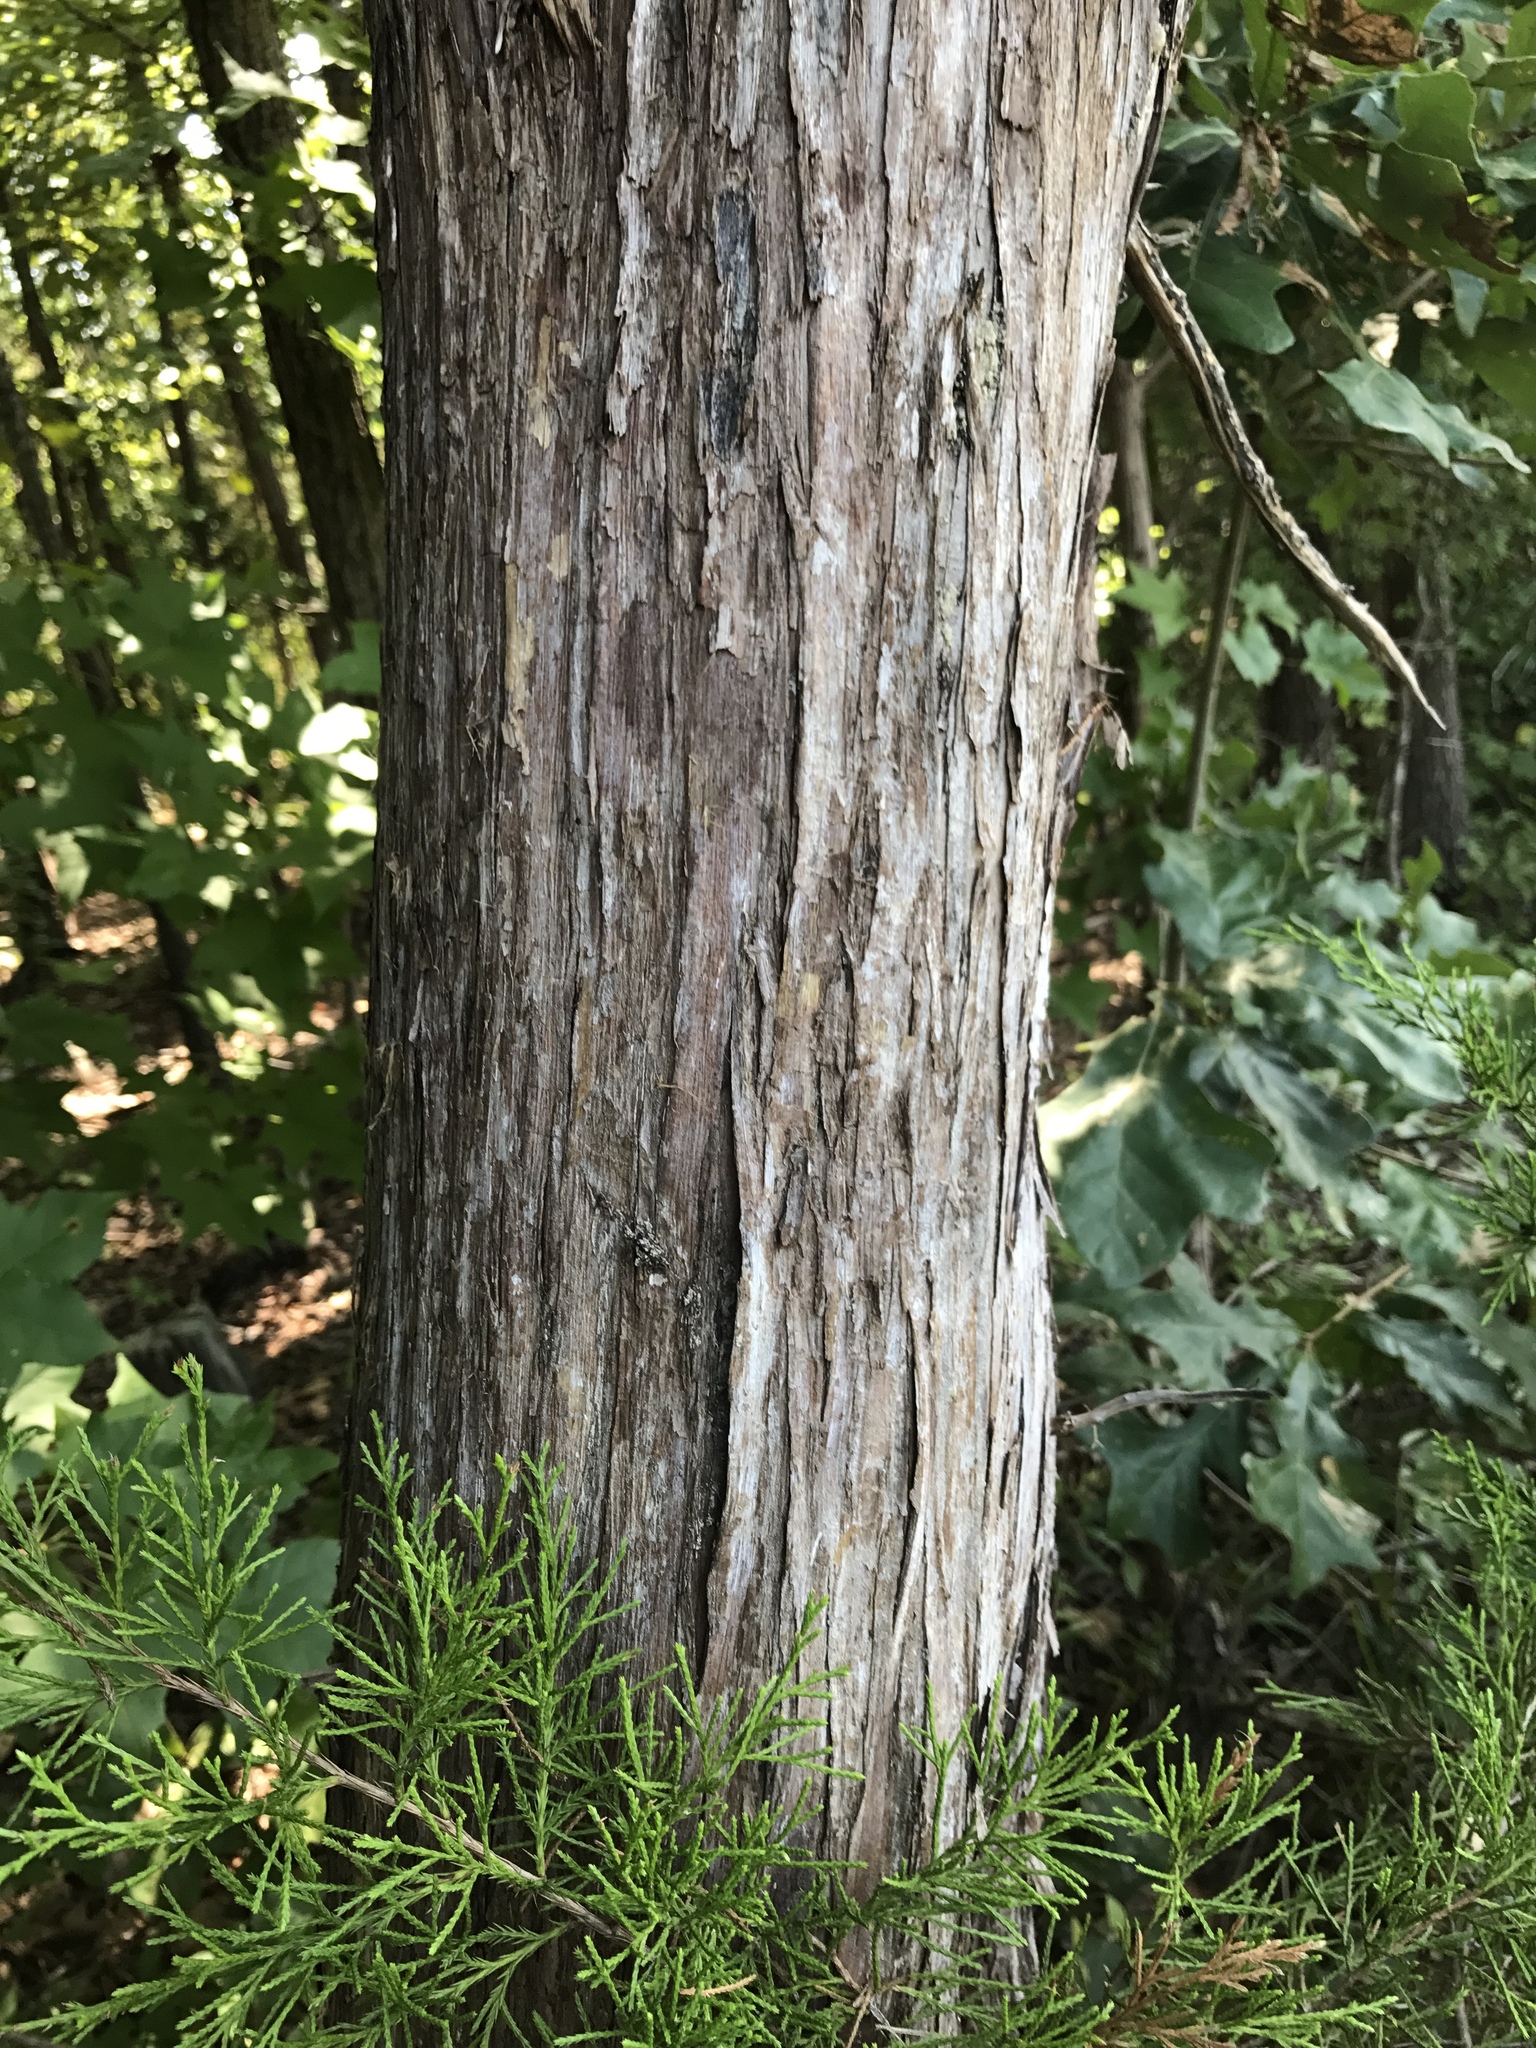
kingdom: Plantae
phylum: Tracheophyta
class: Pinopsida
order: Pinales
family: Cupressaceae
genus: Juniperus
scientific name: Juniperus virginiana
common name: Red juniper
